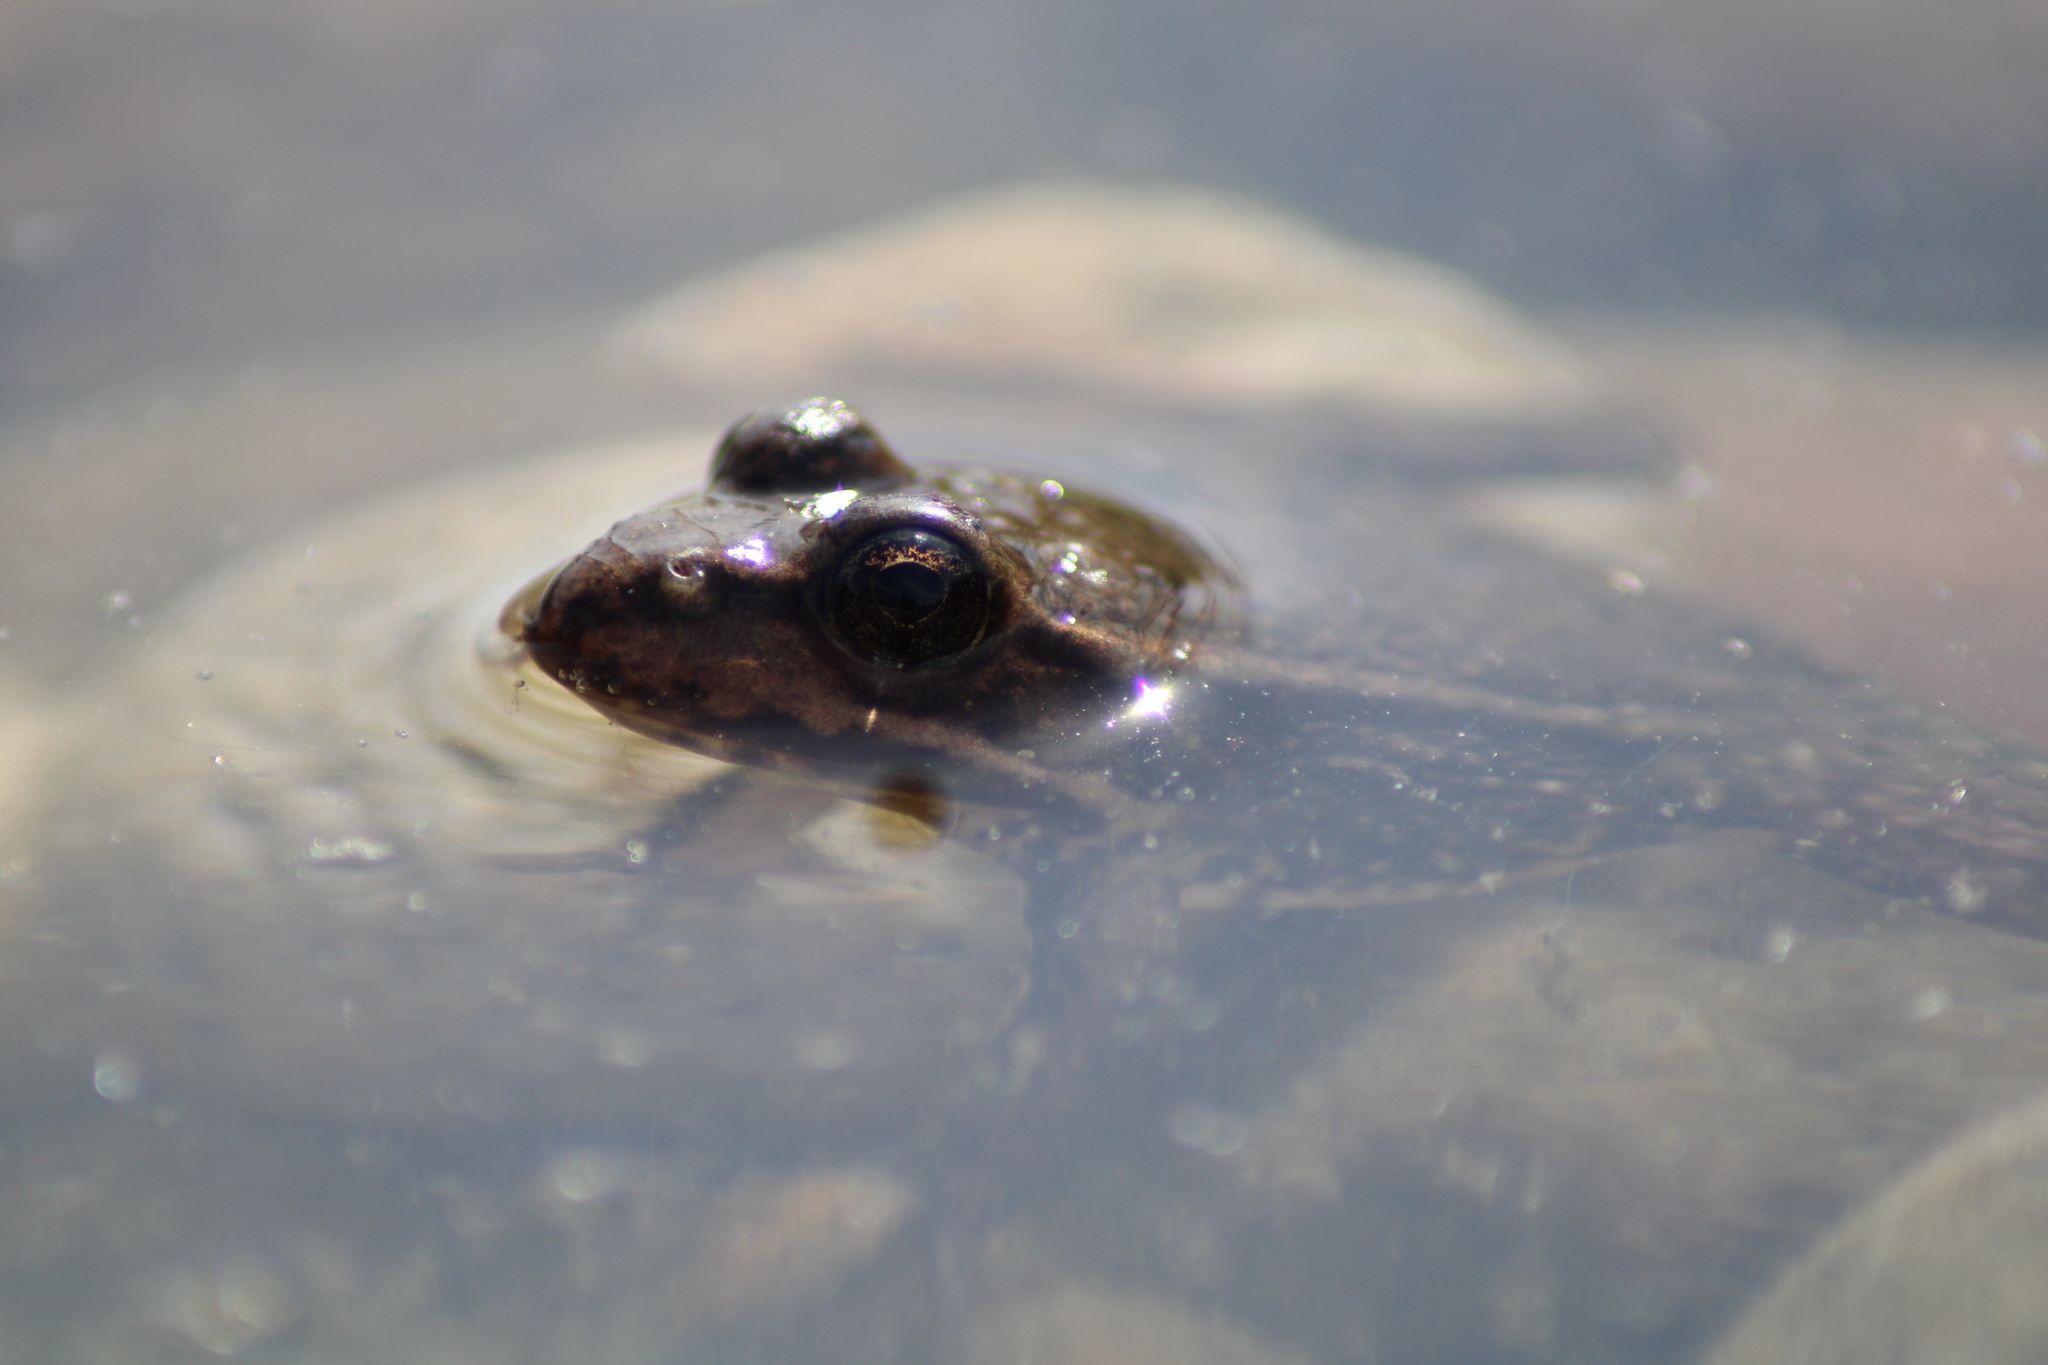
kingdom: Animalia
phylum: Chordata
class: Amphibia
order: Anura
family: Ranidae
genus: Pelophylax
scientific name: Pelophylax
